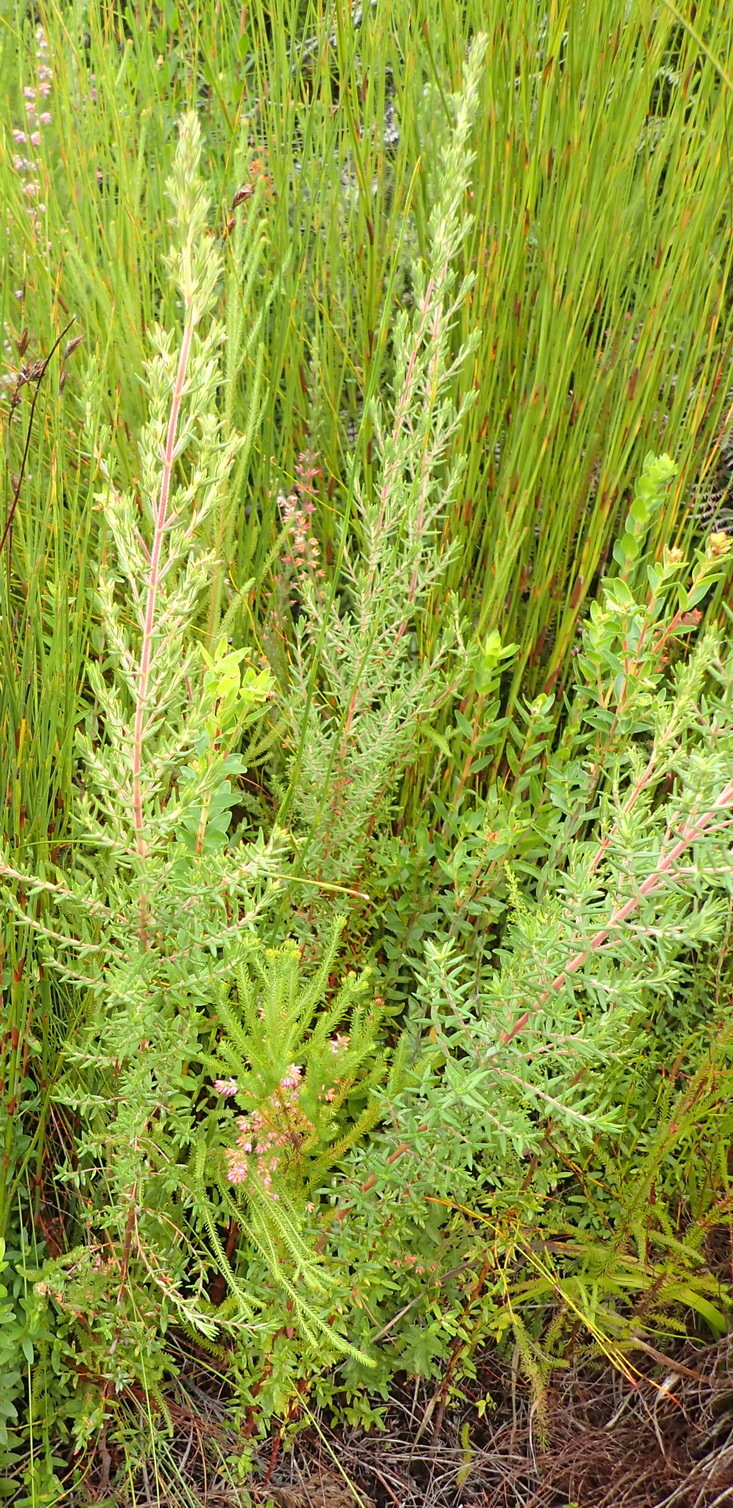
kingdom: Plantae
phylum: Tracheophyta
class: Magnoliopsida
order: Cornales
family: Grubbiaceae
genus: Grubbia
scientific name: Grubbia rosmarinifolia
